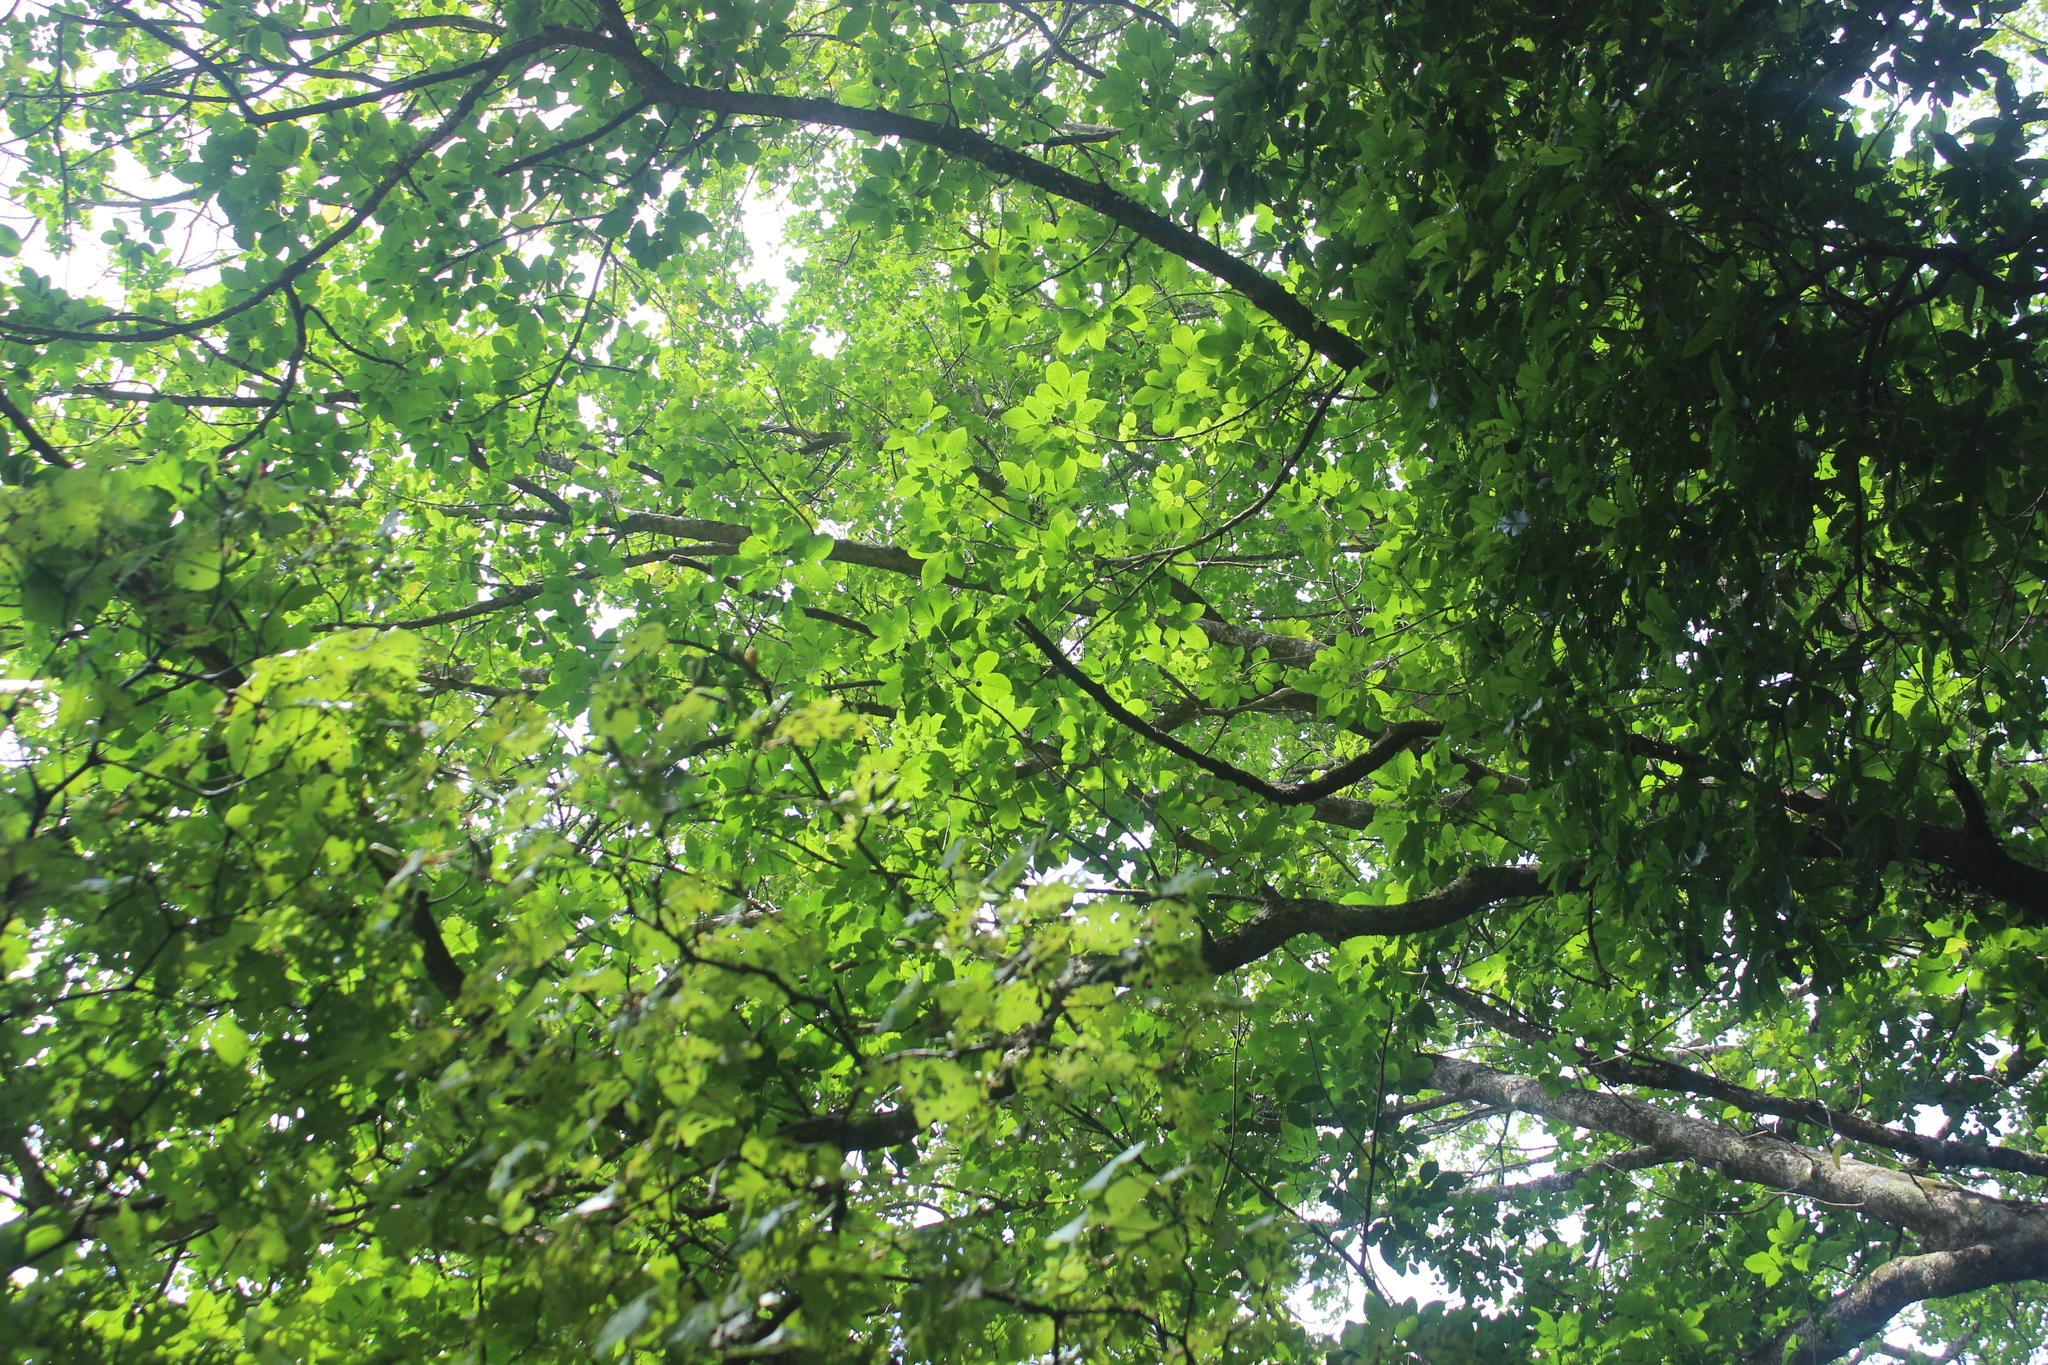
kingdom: Plantae
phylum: Tracheophyta
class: Magnoliopsida
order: Lamiales
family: Lamiaceae
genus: Vitex
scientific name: Vitex lucens
